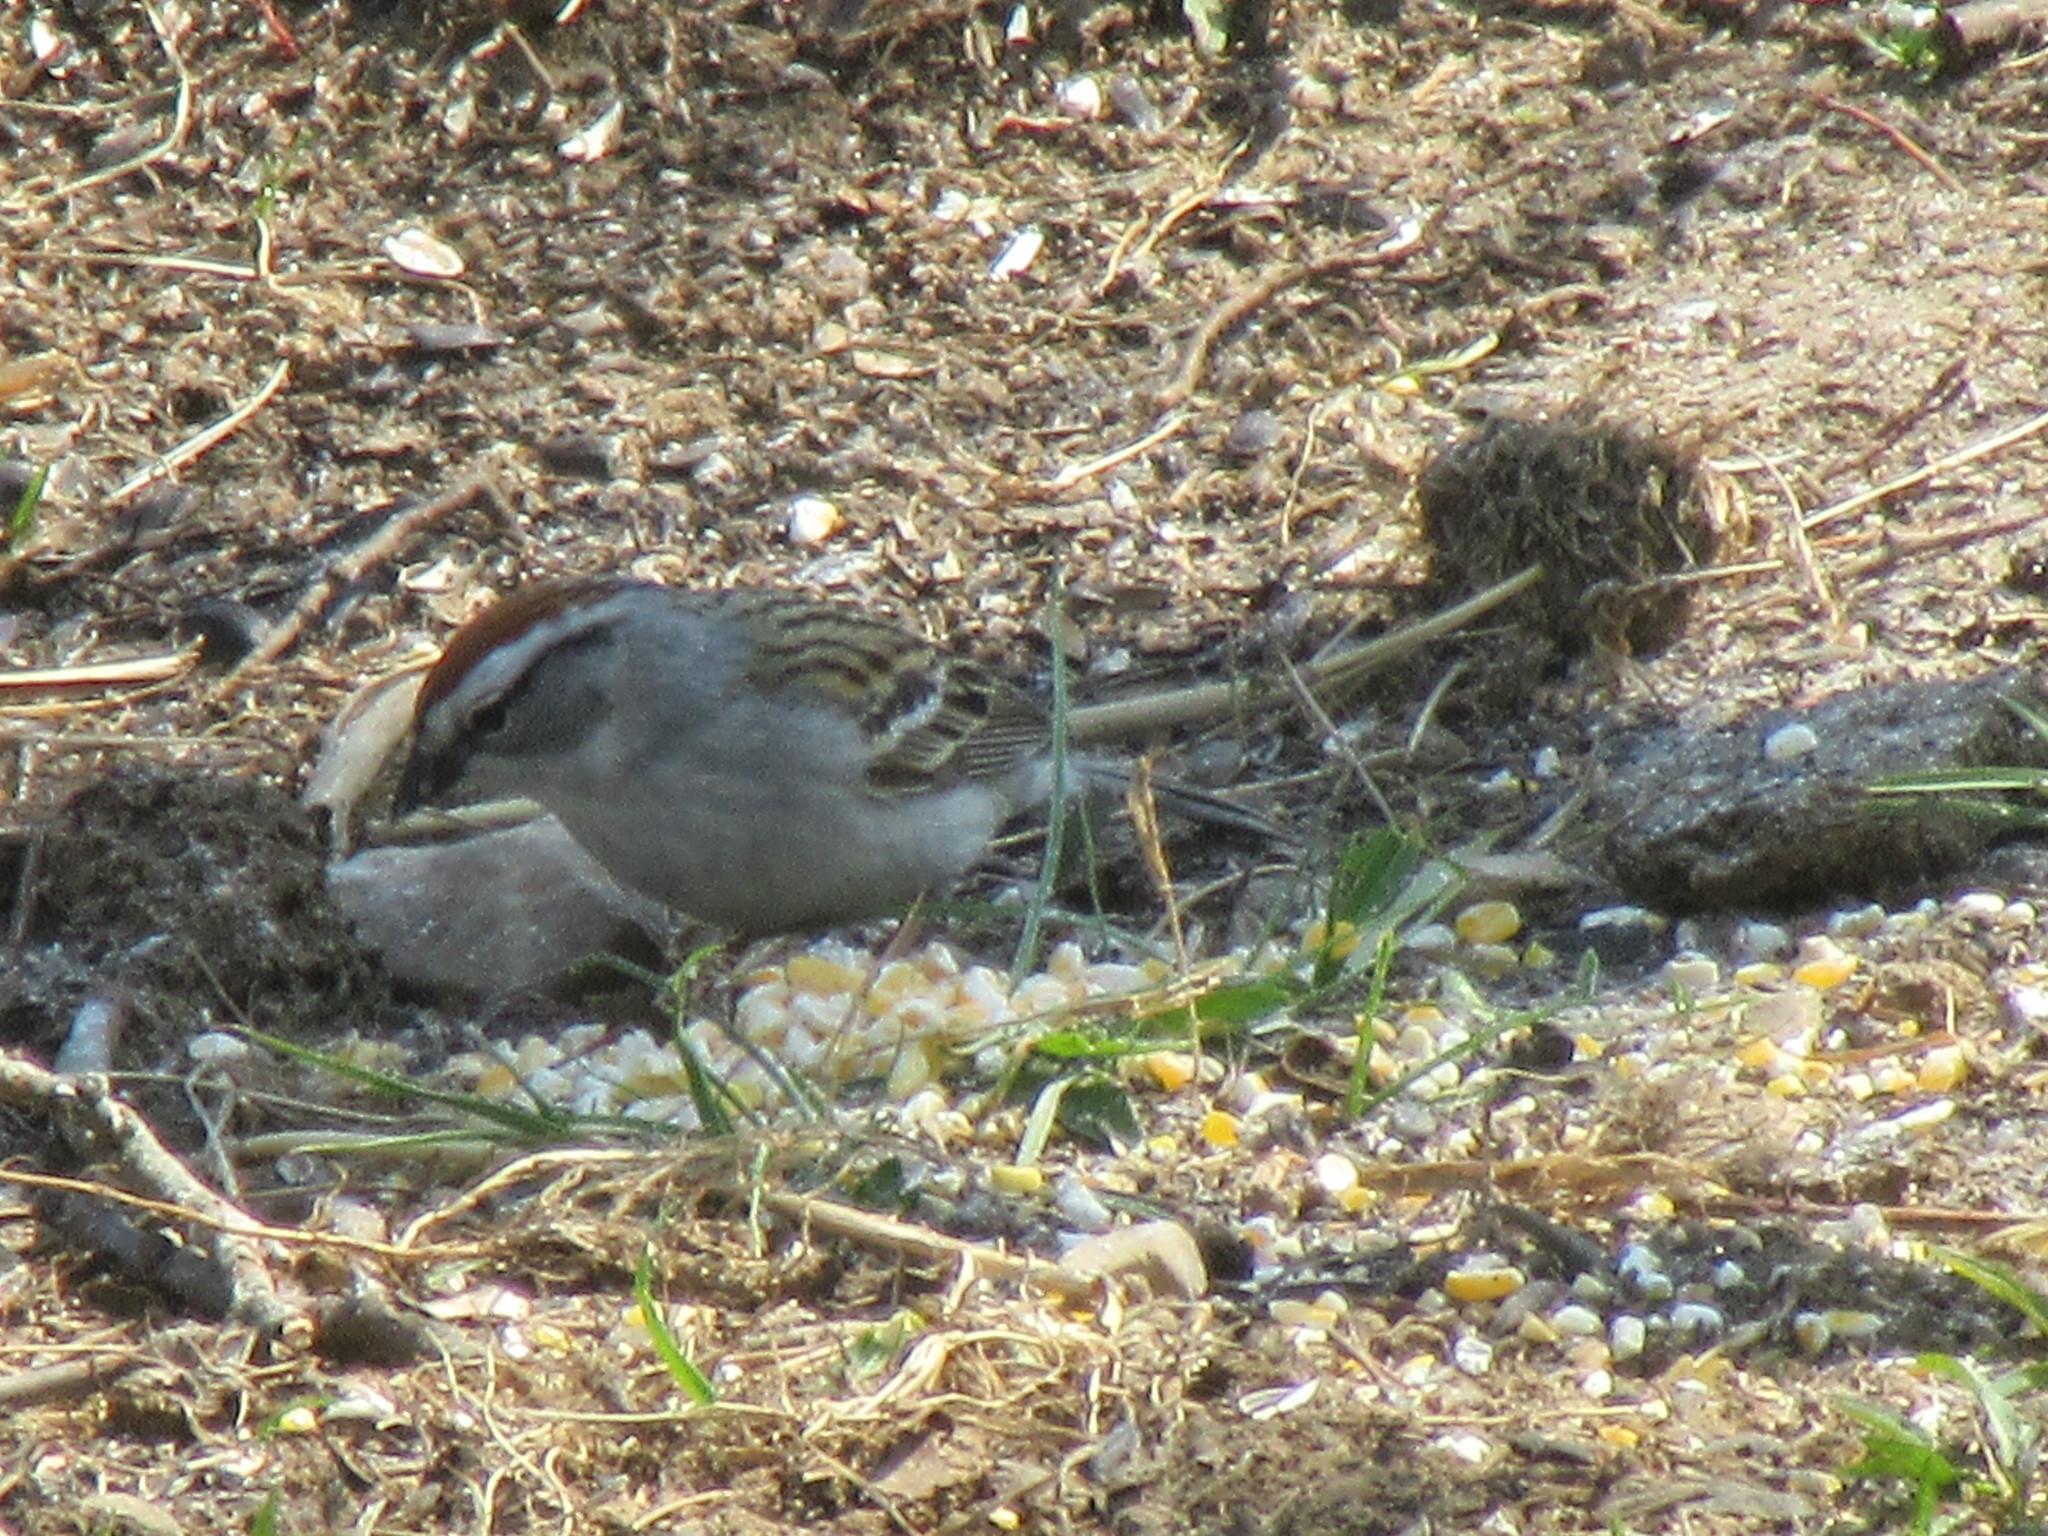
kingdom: Animalia
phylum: Chordata
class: Aves
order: Passeriformes
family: Passerellidae
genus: Spizella
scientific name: Spizella passerina
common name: Chipping sparrow
